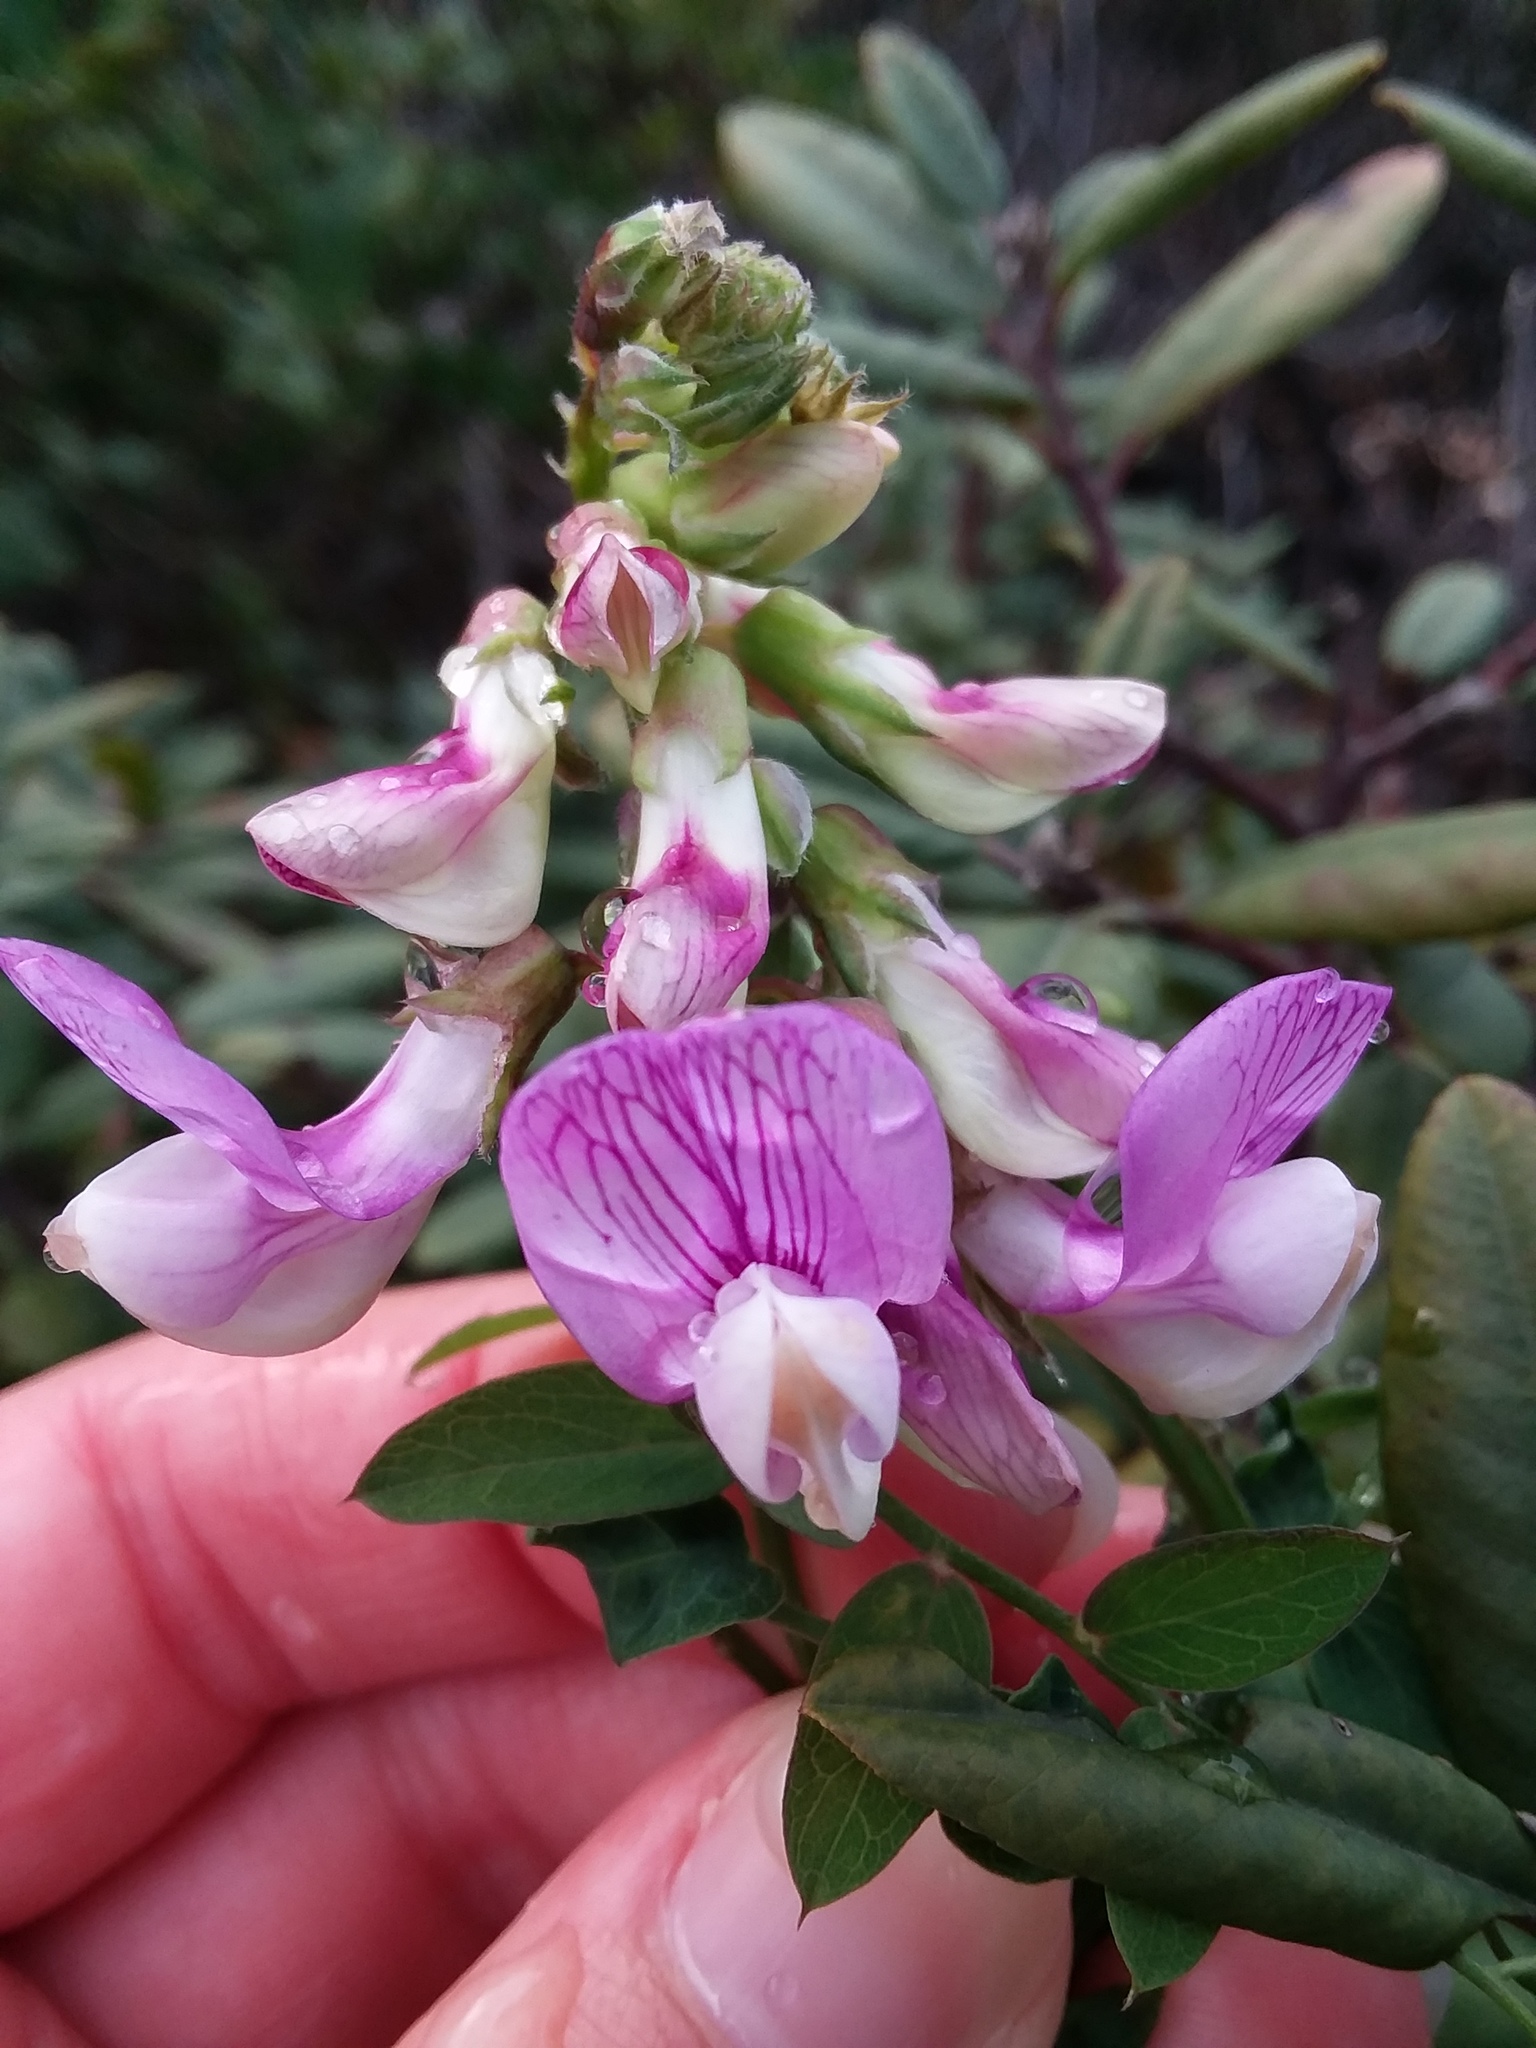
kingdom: Plantae
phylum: Tracheophyta
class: Magnoliopsida
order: Fabales
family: Fabaceae
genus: Lathyrus
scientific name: Lathyrus vestitus
